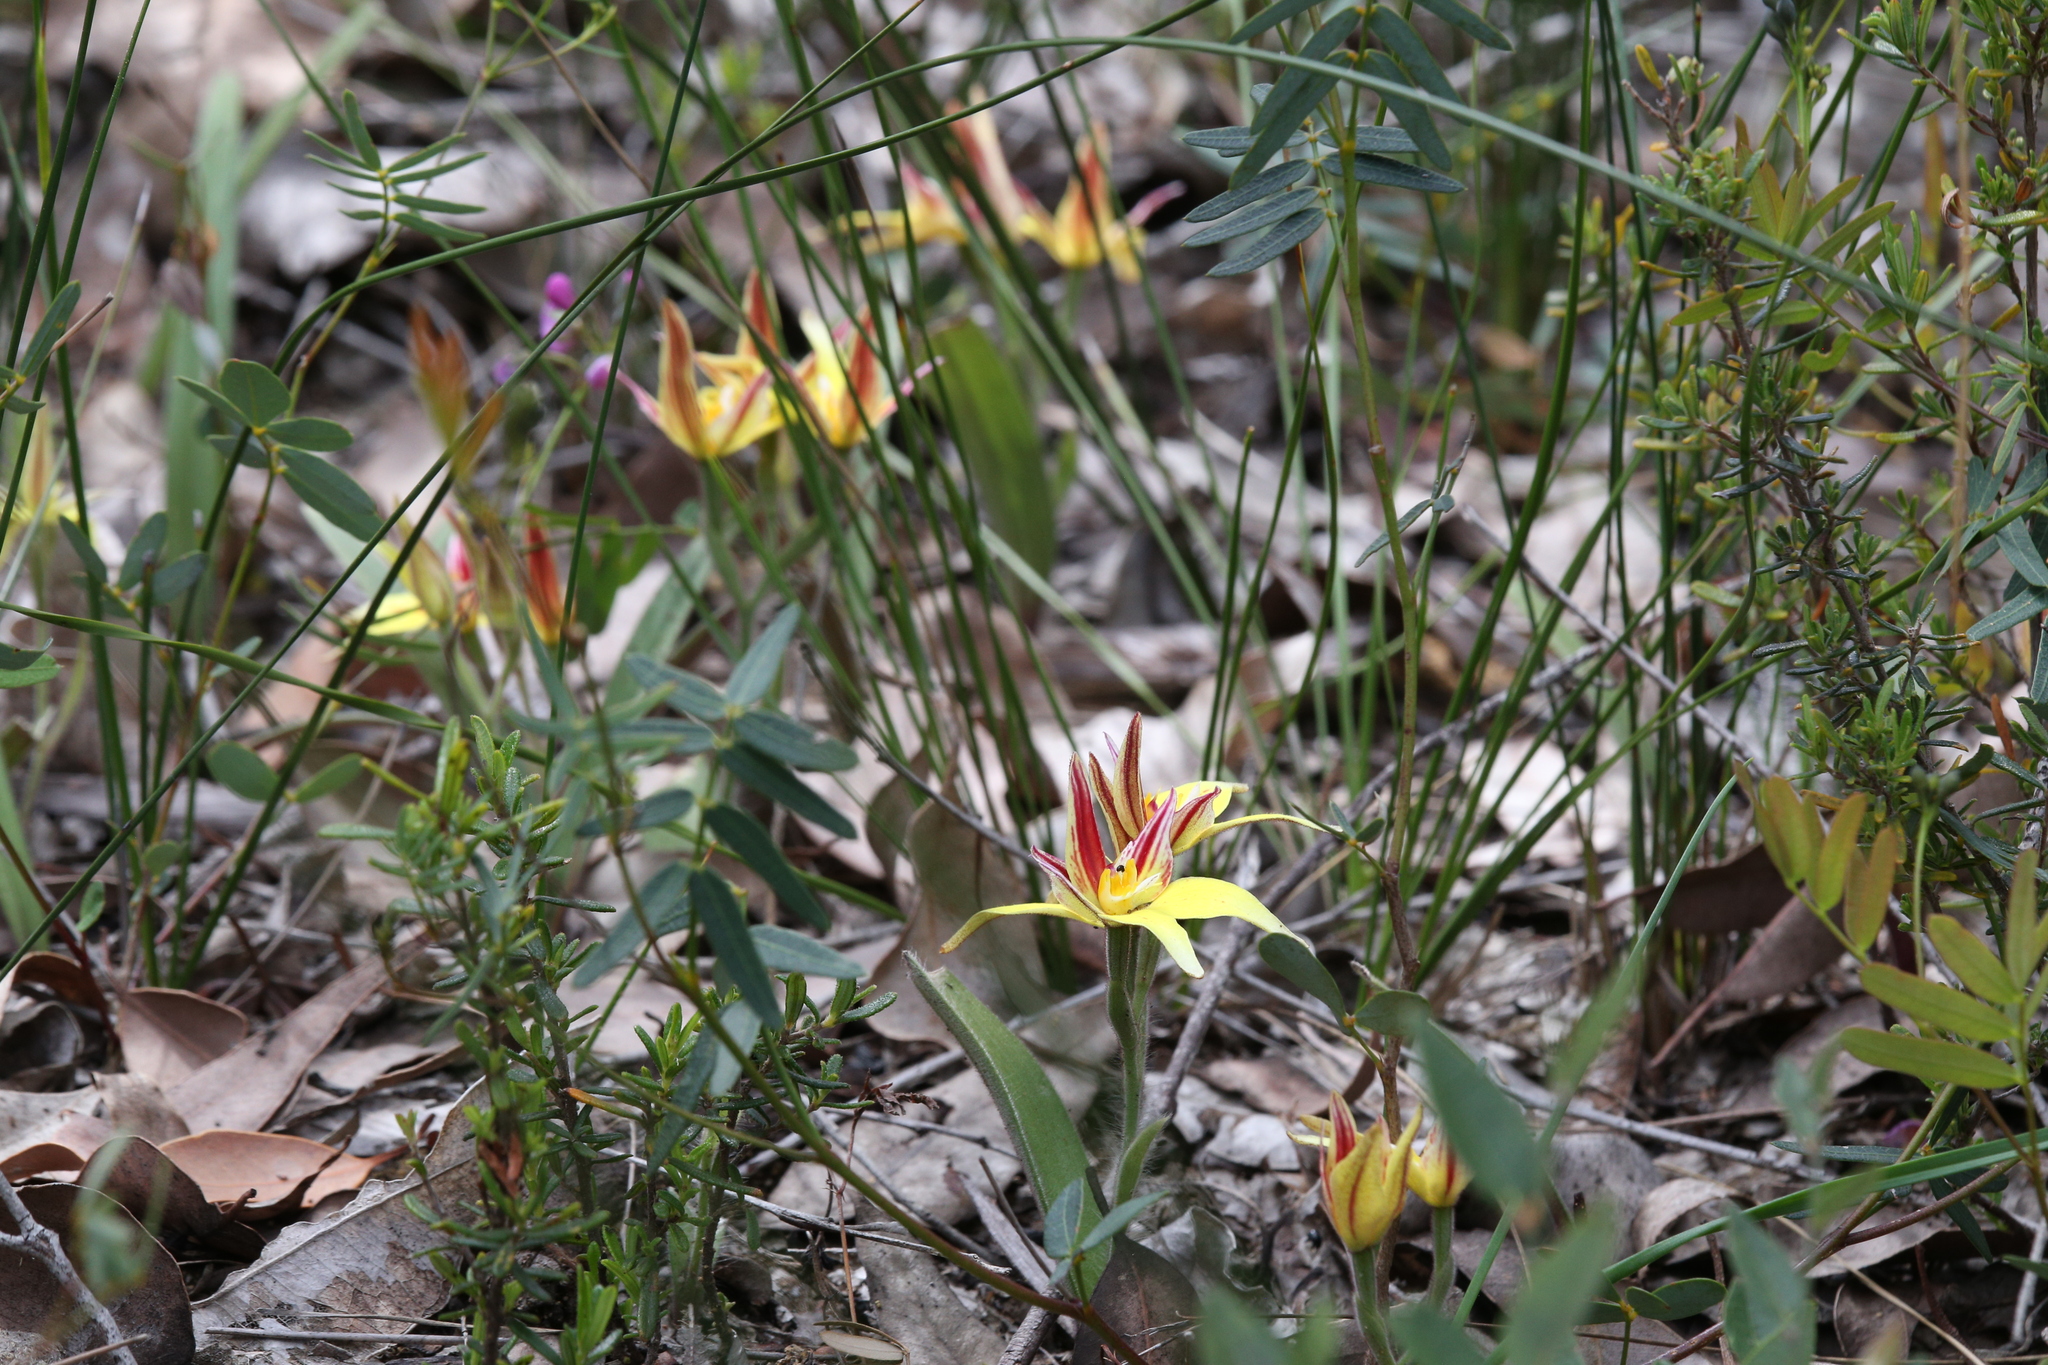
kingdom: Plantae
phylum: Tracheophyta
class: Liliopsida
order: Asparagales
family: Orchidaceae
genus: Caladenia
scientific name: Caladenia flava
